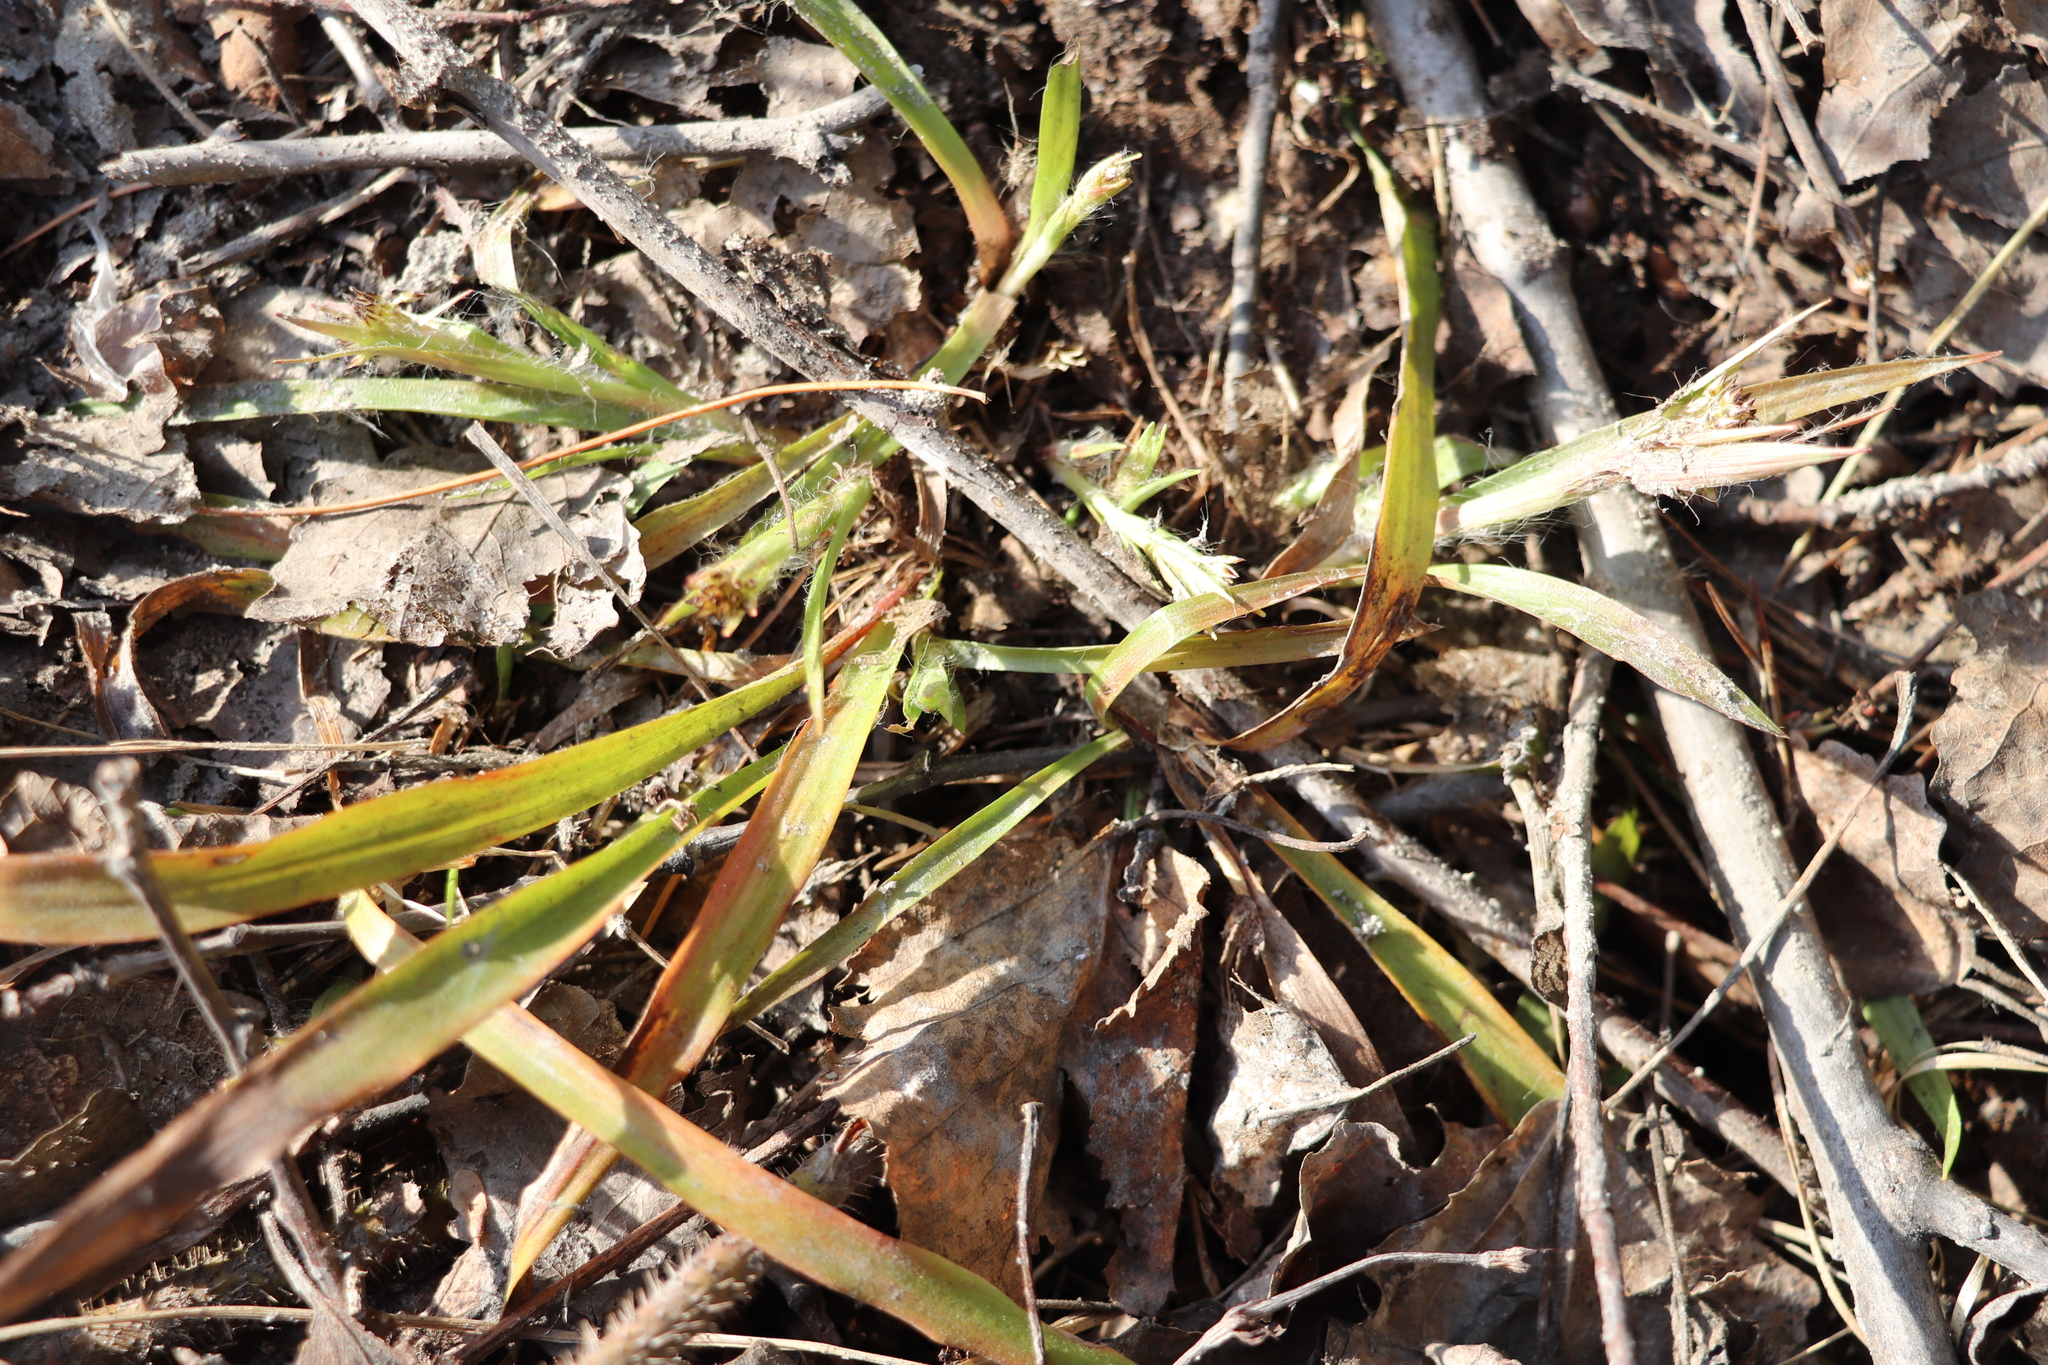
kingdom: Plantae
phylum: Tracheophyta
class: Liliopsida
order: Poales
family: Juncaceae
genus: Luzula
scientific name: Luzula pilosa
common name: Hairy wood-rush
